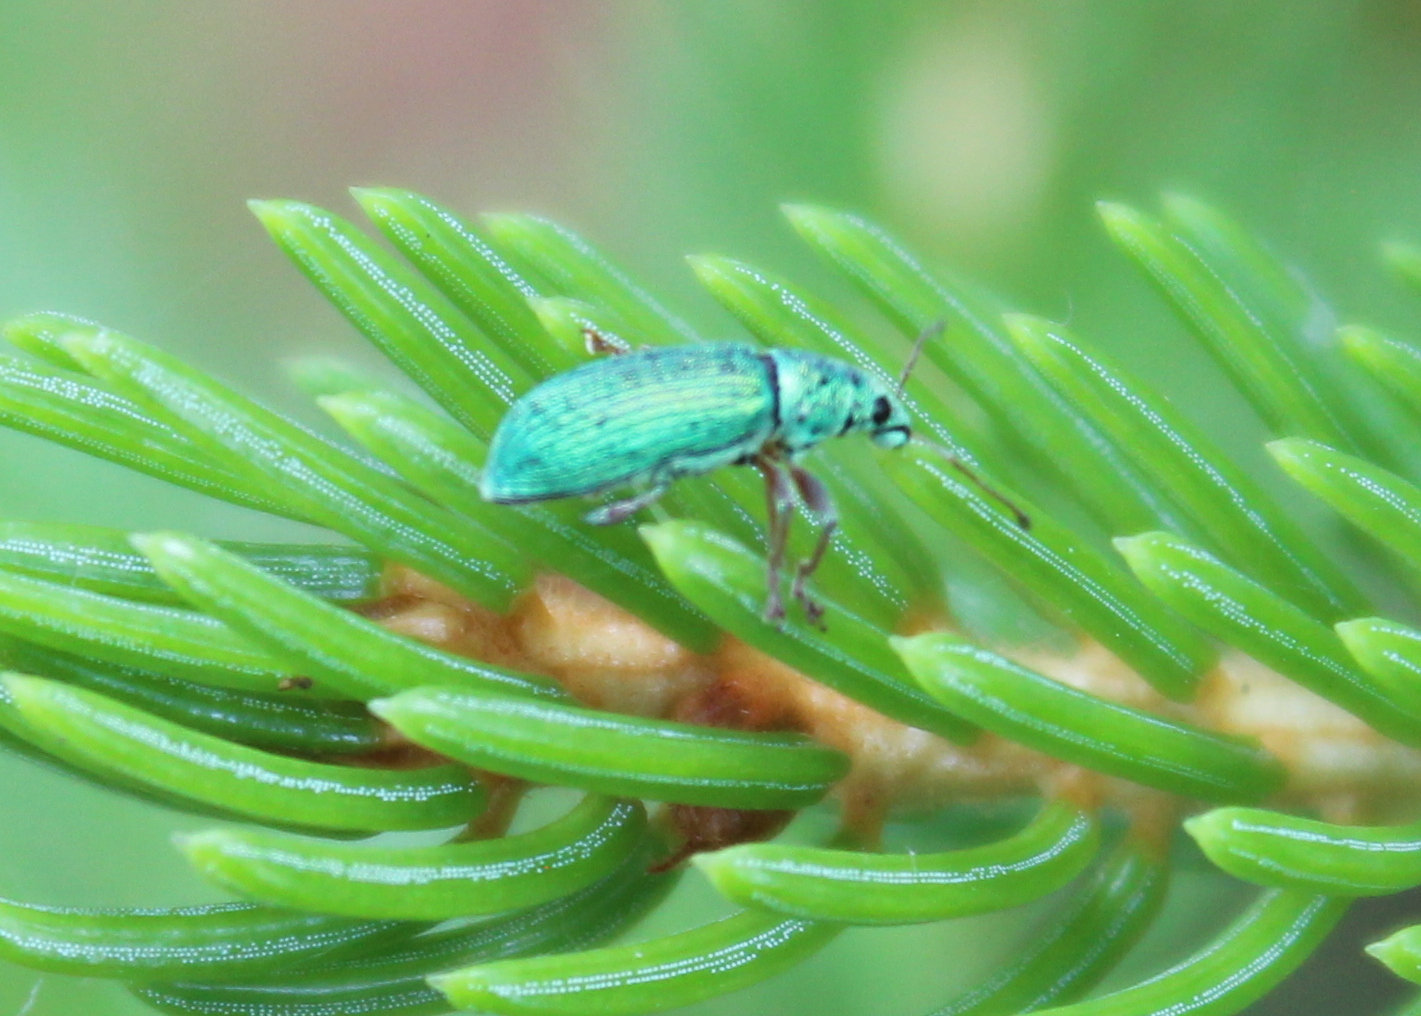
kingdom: Animalia
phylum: Arthropoda
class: Insecta
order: Coleoptera
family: Curculionidae
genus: Polydrusus
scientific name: Polydrusus formosus
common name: Weevil
